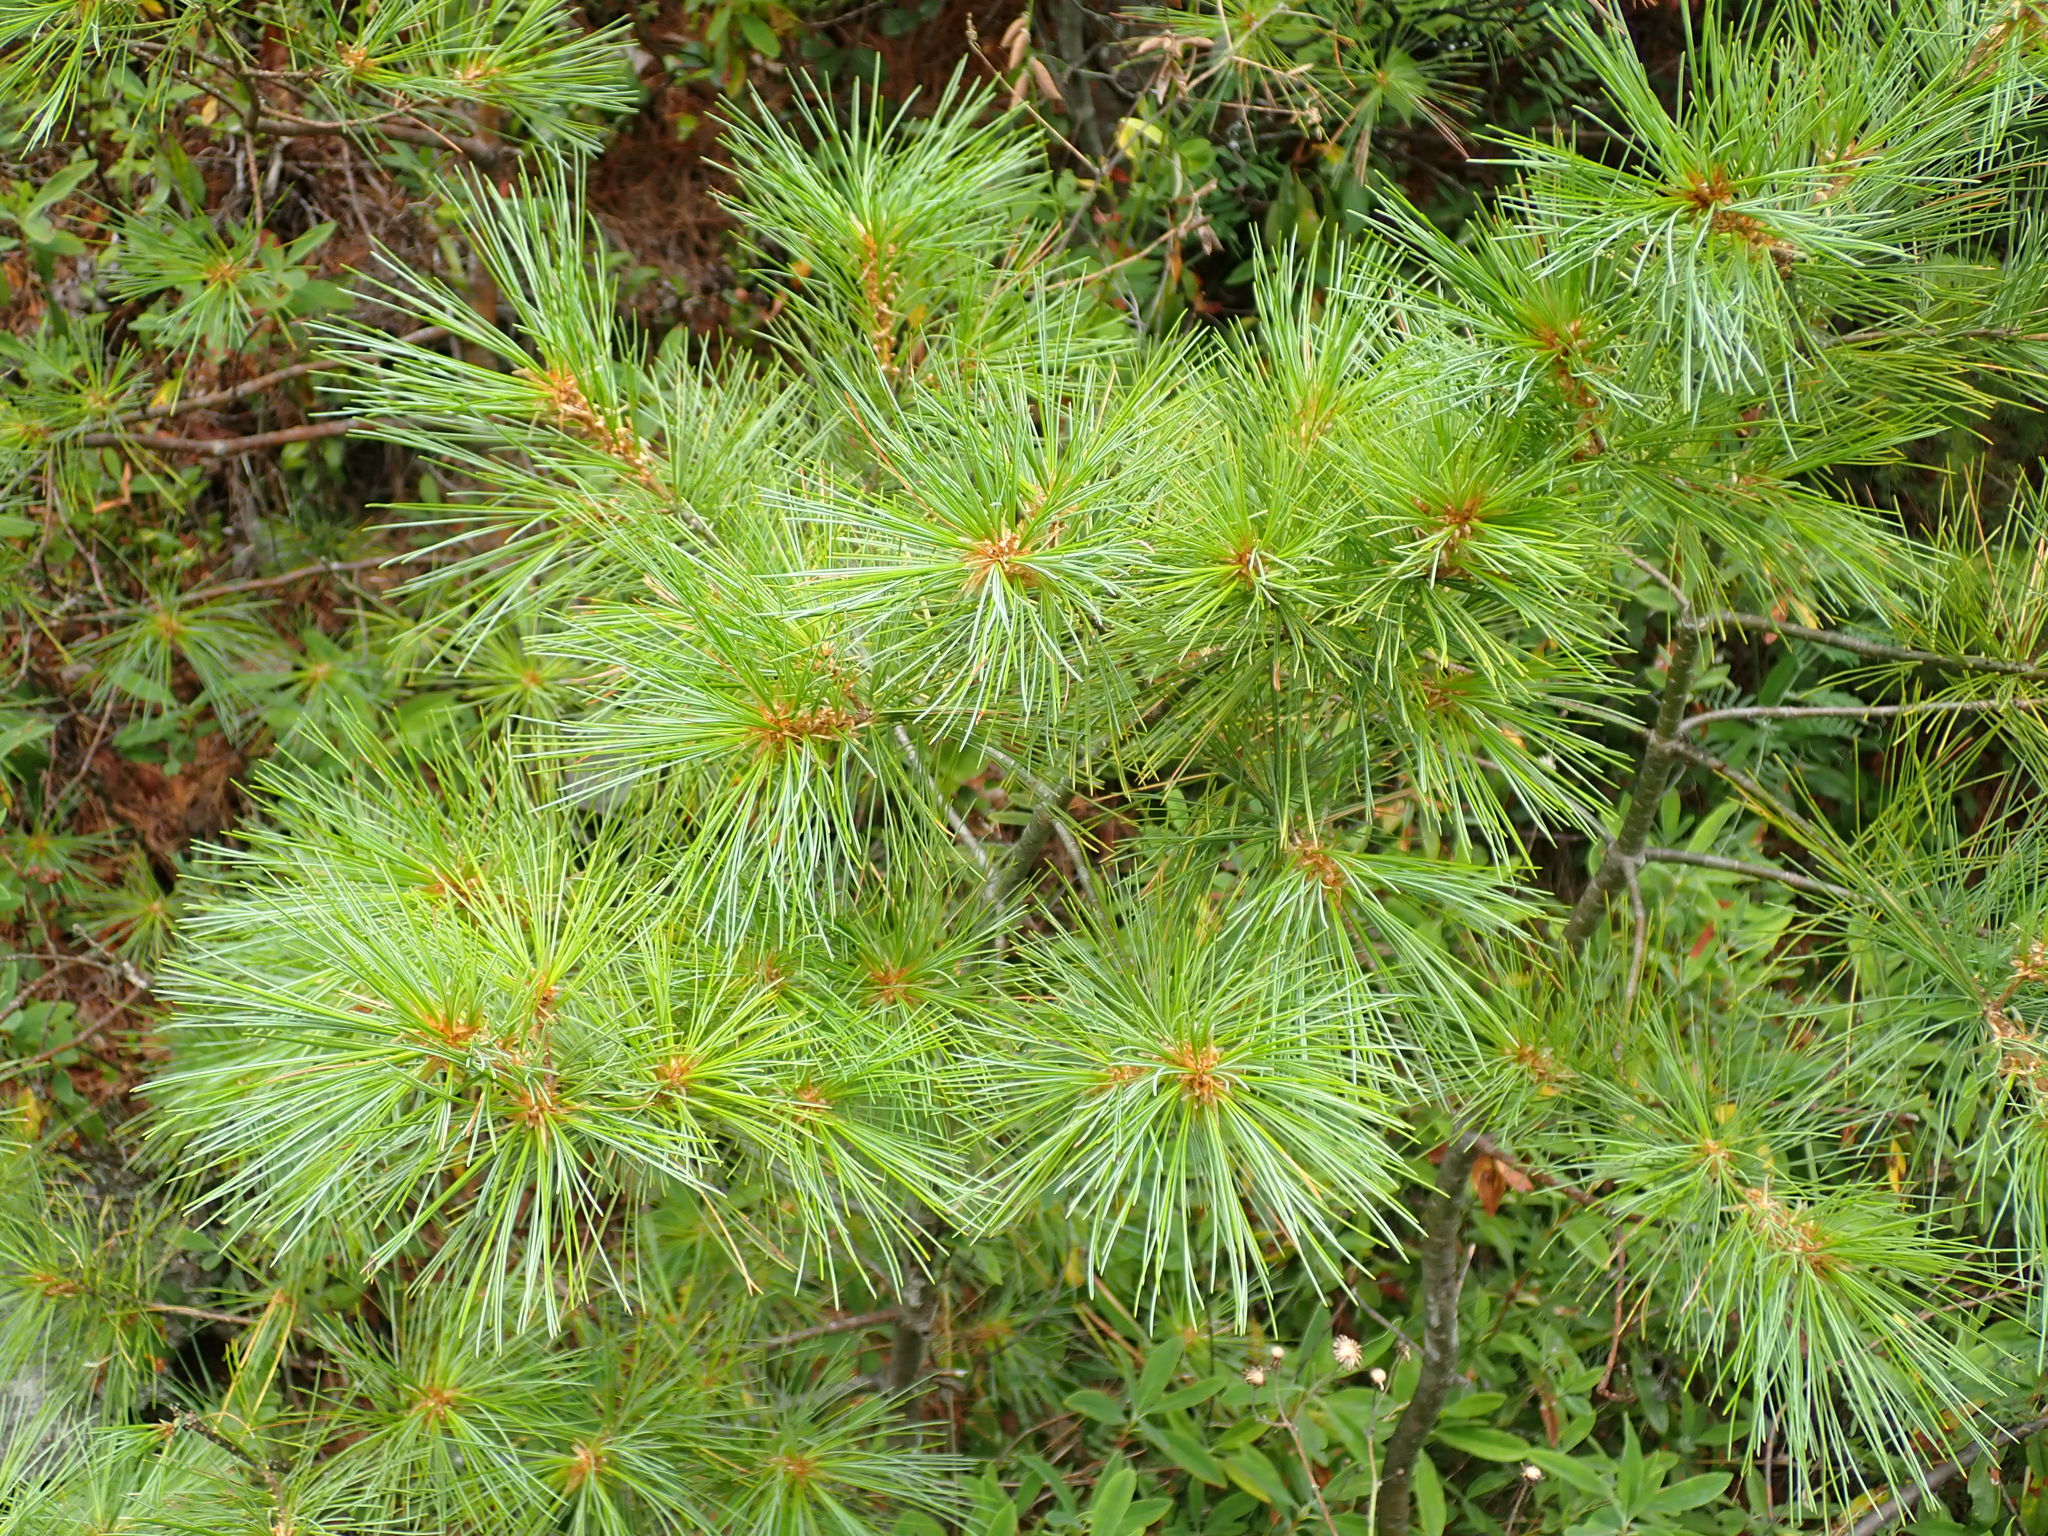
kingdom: Plantae
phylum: Tracheophyta
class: Pinopsida
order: Pinales
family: Pinaceae
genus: Pinus
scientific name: Pinus strobus
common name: Weymouth pine
